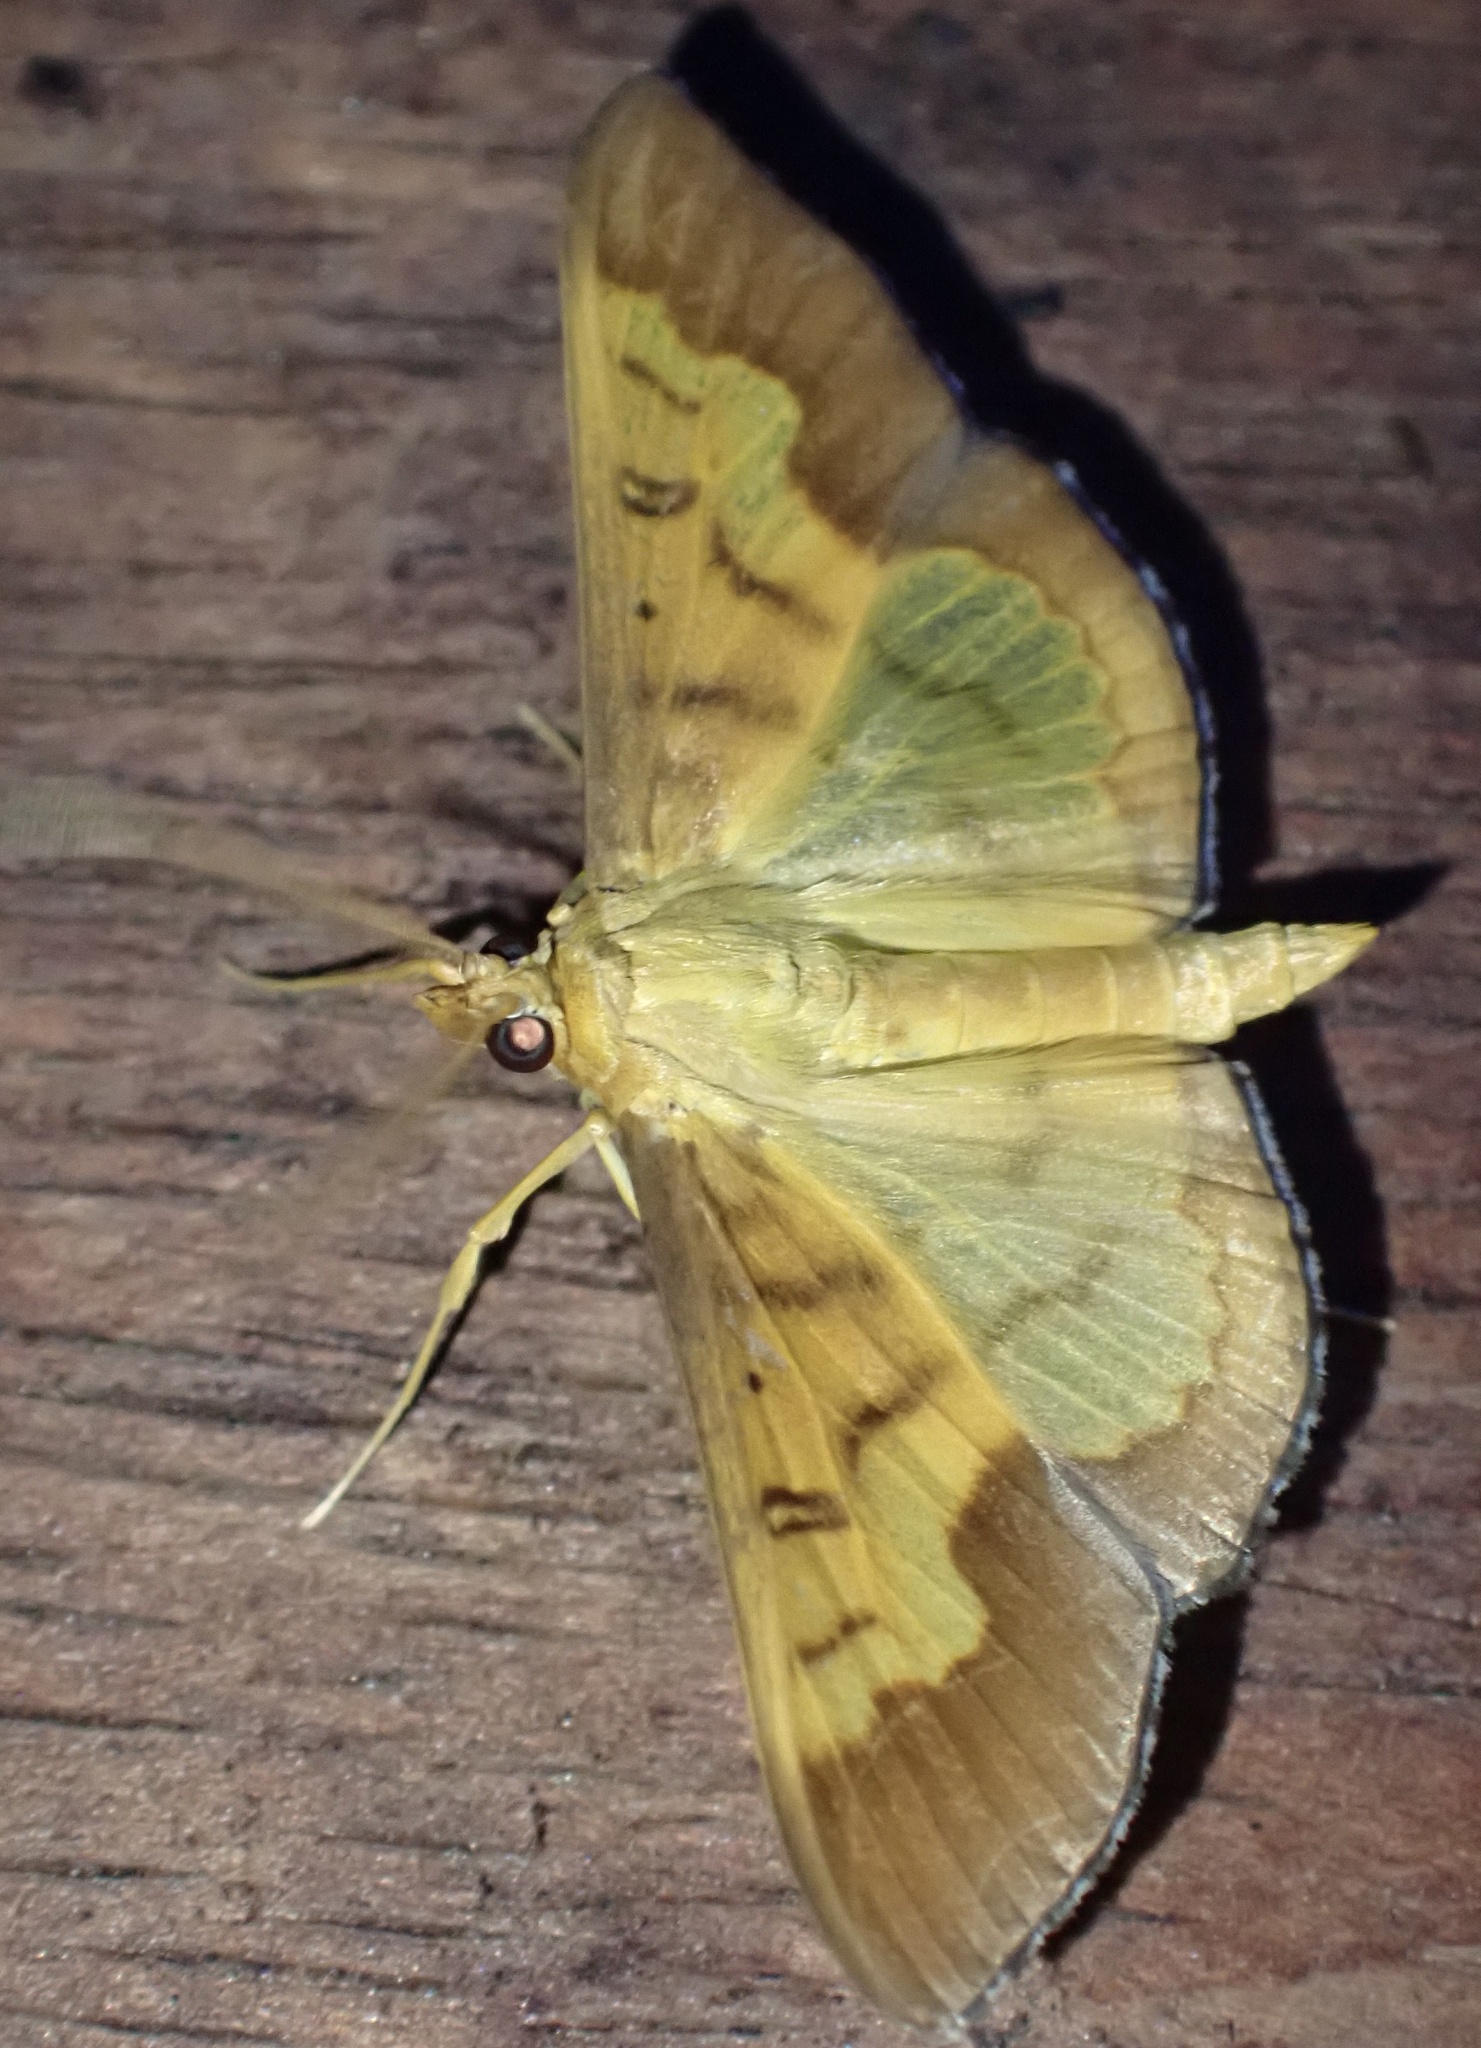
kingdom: Animalia
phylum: Arthropoda
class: Insecta
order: Lepidoptera
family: Crambidae
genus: Meroctena
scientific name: Meroctena staintonii
